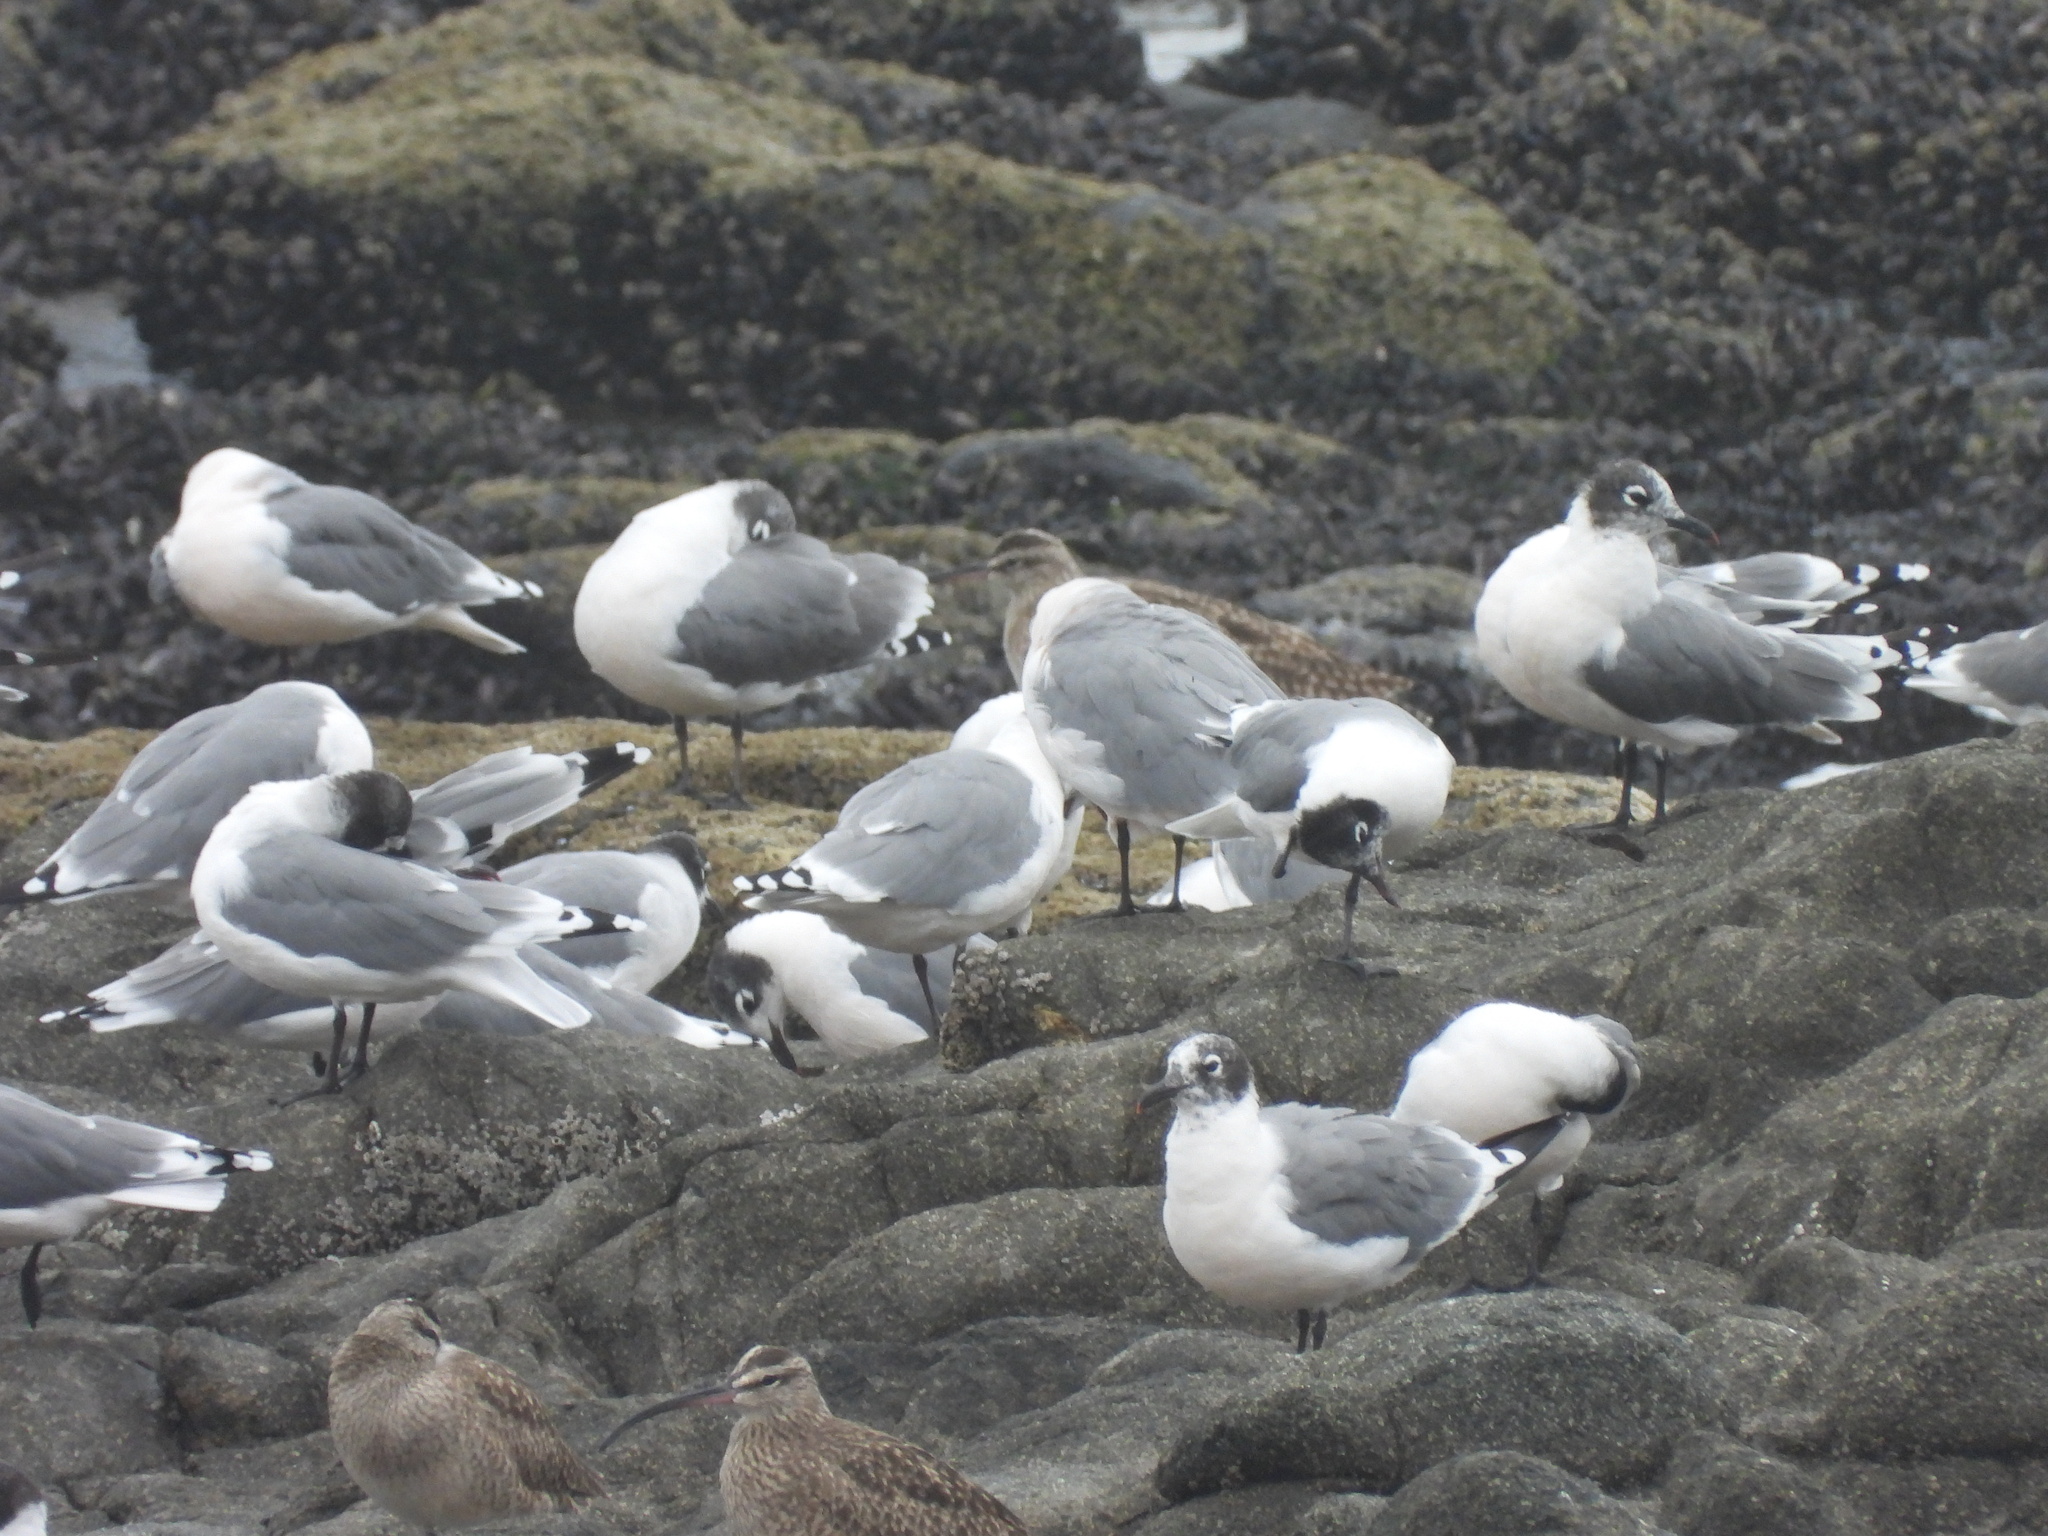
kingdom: Animalia
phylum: Chordata
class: Aves
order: Charadriiformes
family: Laridae
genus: Leucophaeus
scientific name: Leucophaeus pipixcan
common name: Franklin's gull
